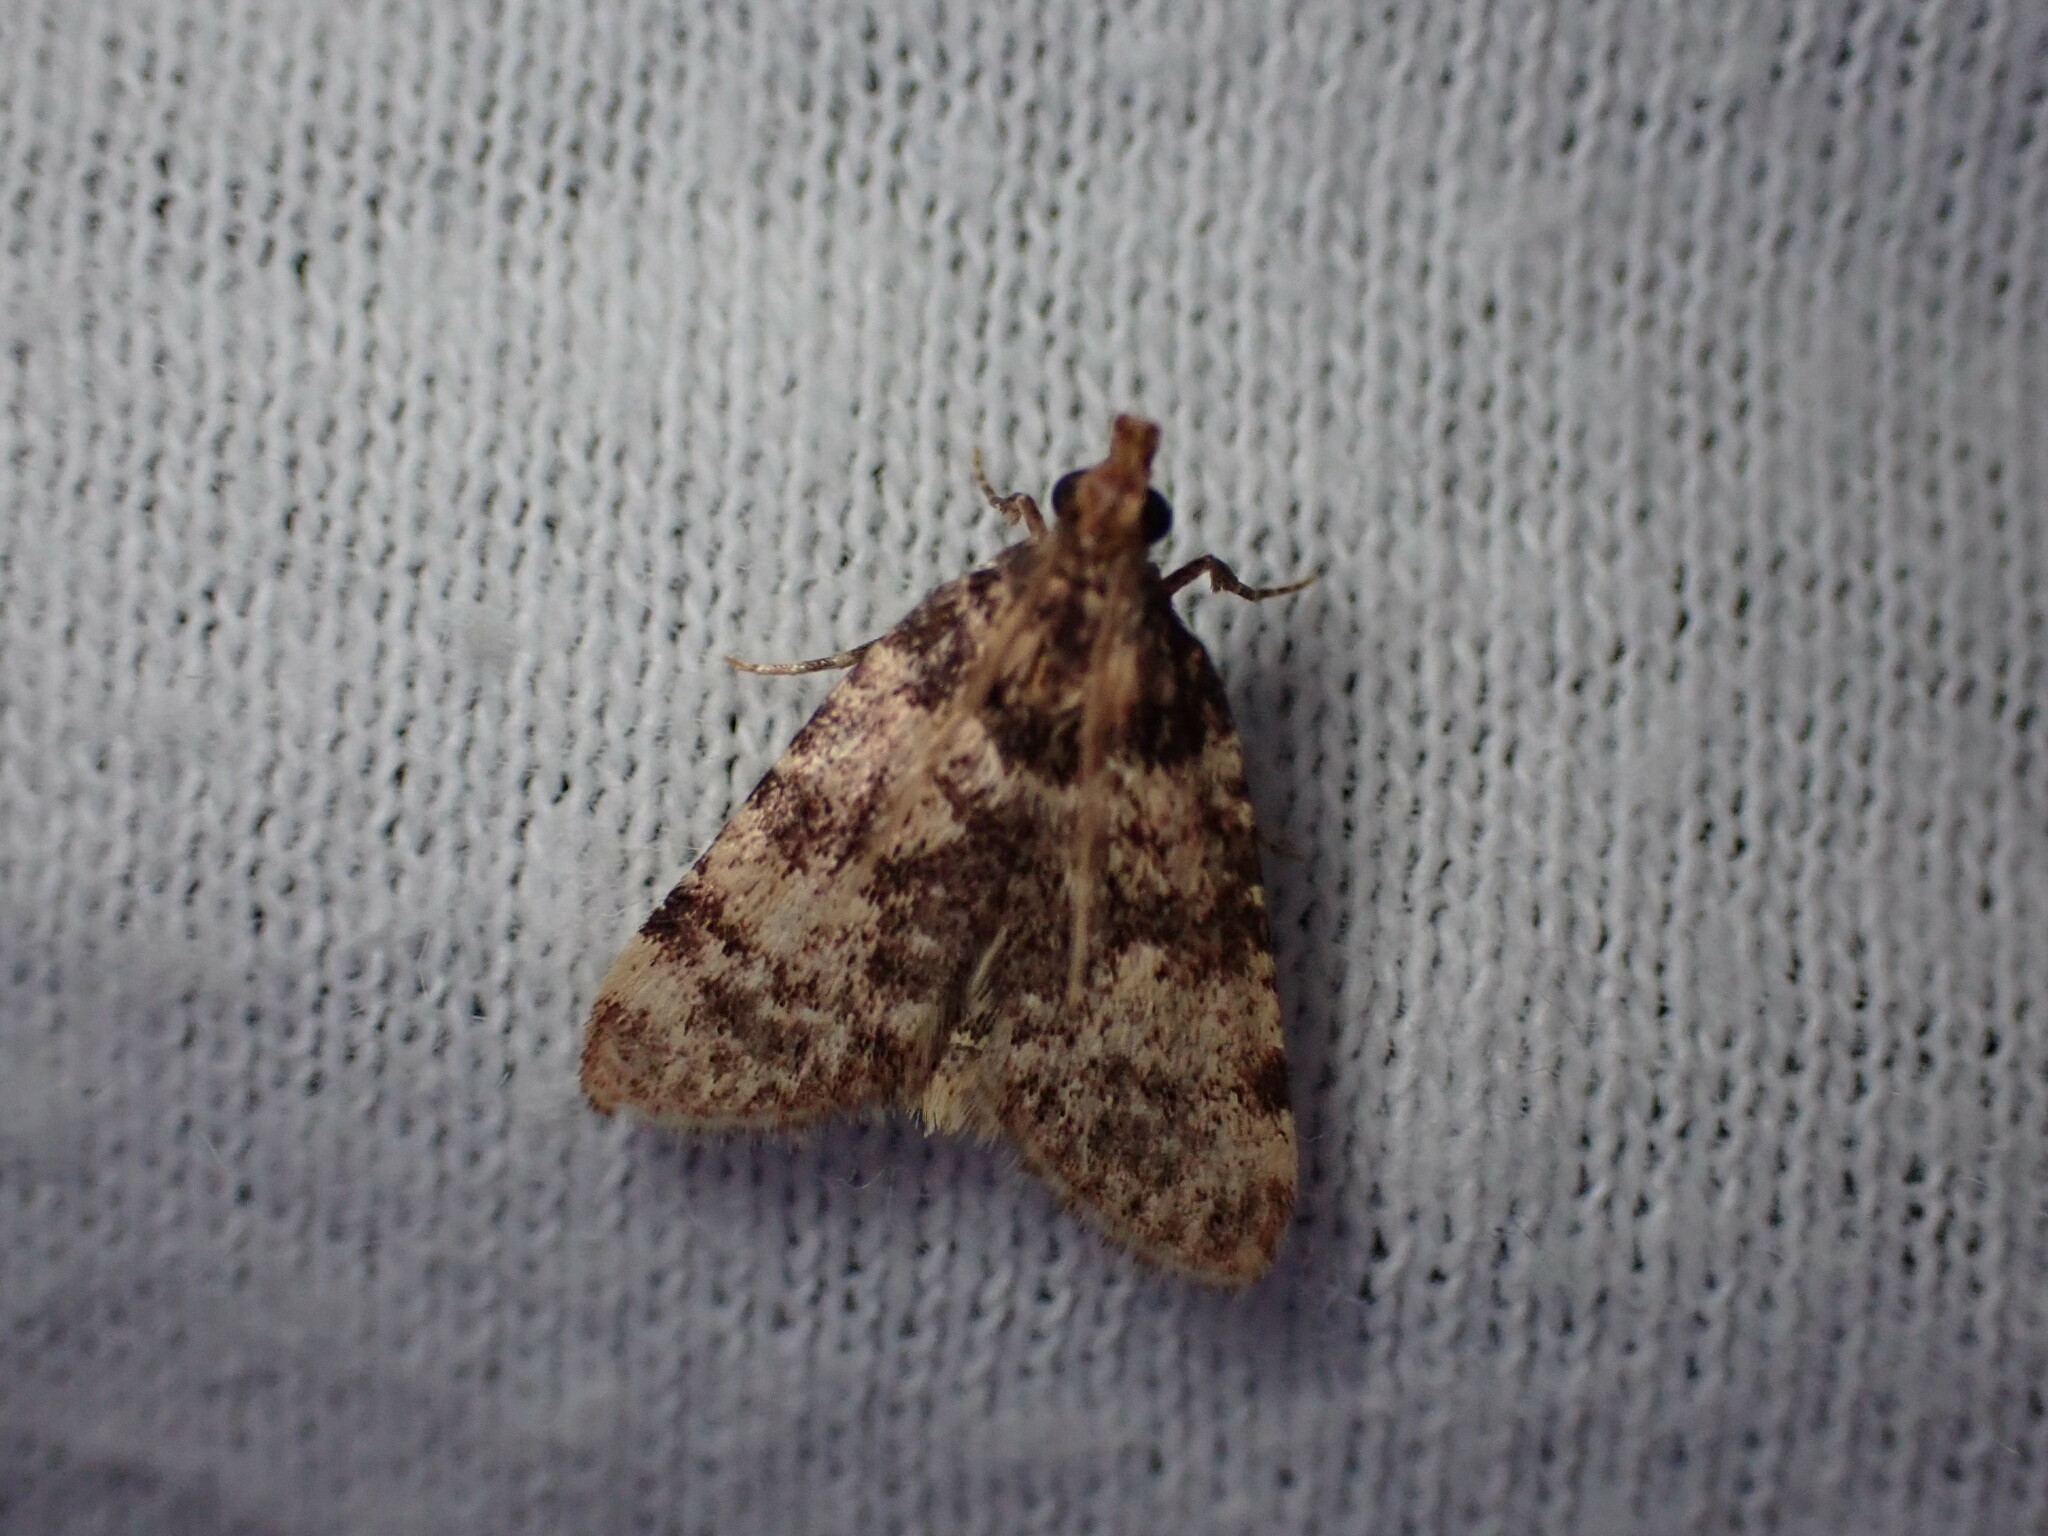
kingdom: Animalia
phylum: Arthropoda
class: Insecta
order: Lepidoptera
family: Pyralidae
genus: Aglossa
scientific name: Aglossa brabanti
